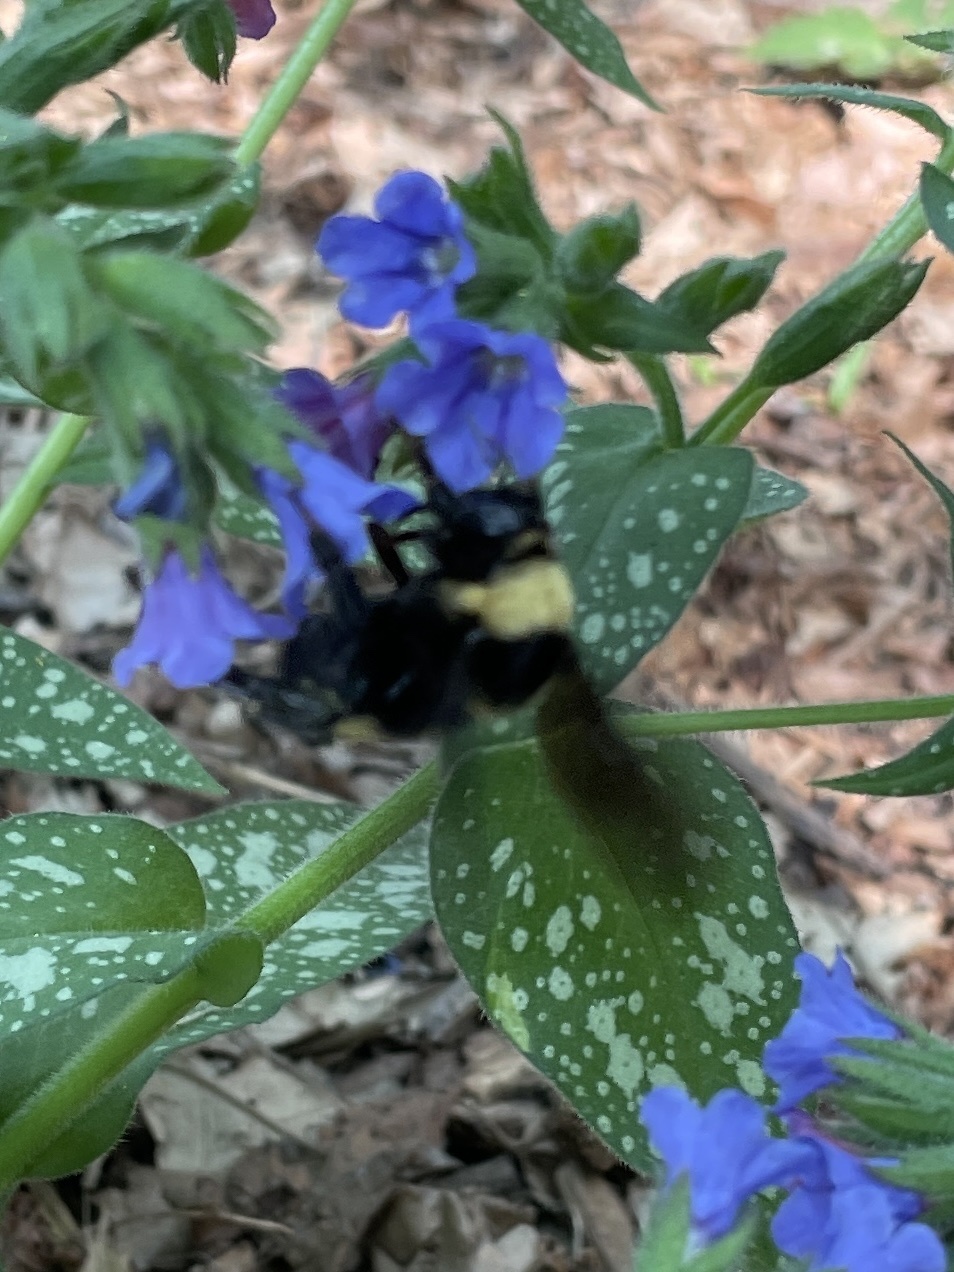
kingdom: Animalia
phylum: Arthropoda
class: Insecta
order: Hymenoptera
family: Apidae
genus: Bombus
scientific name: Bombus auricomus
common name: Black and gold bumble bee
